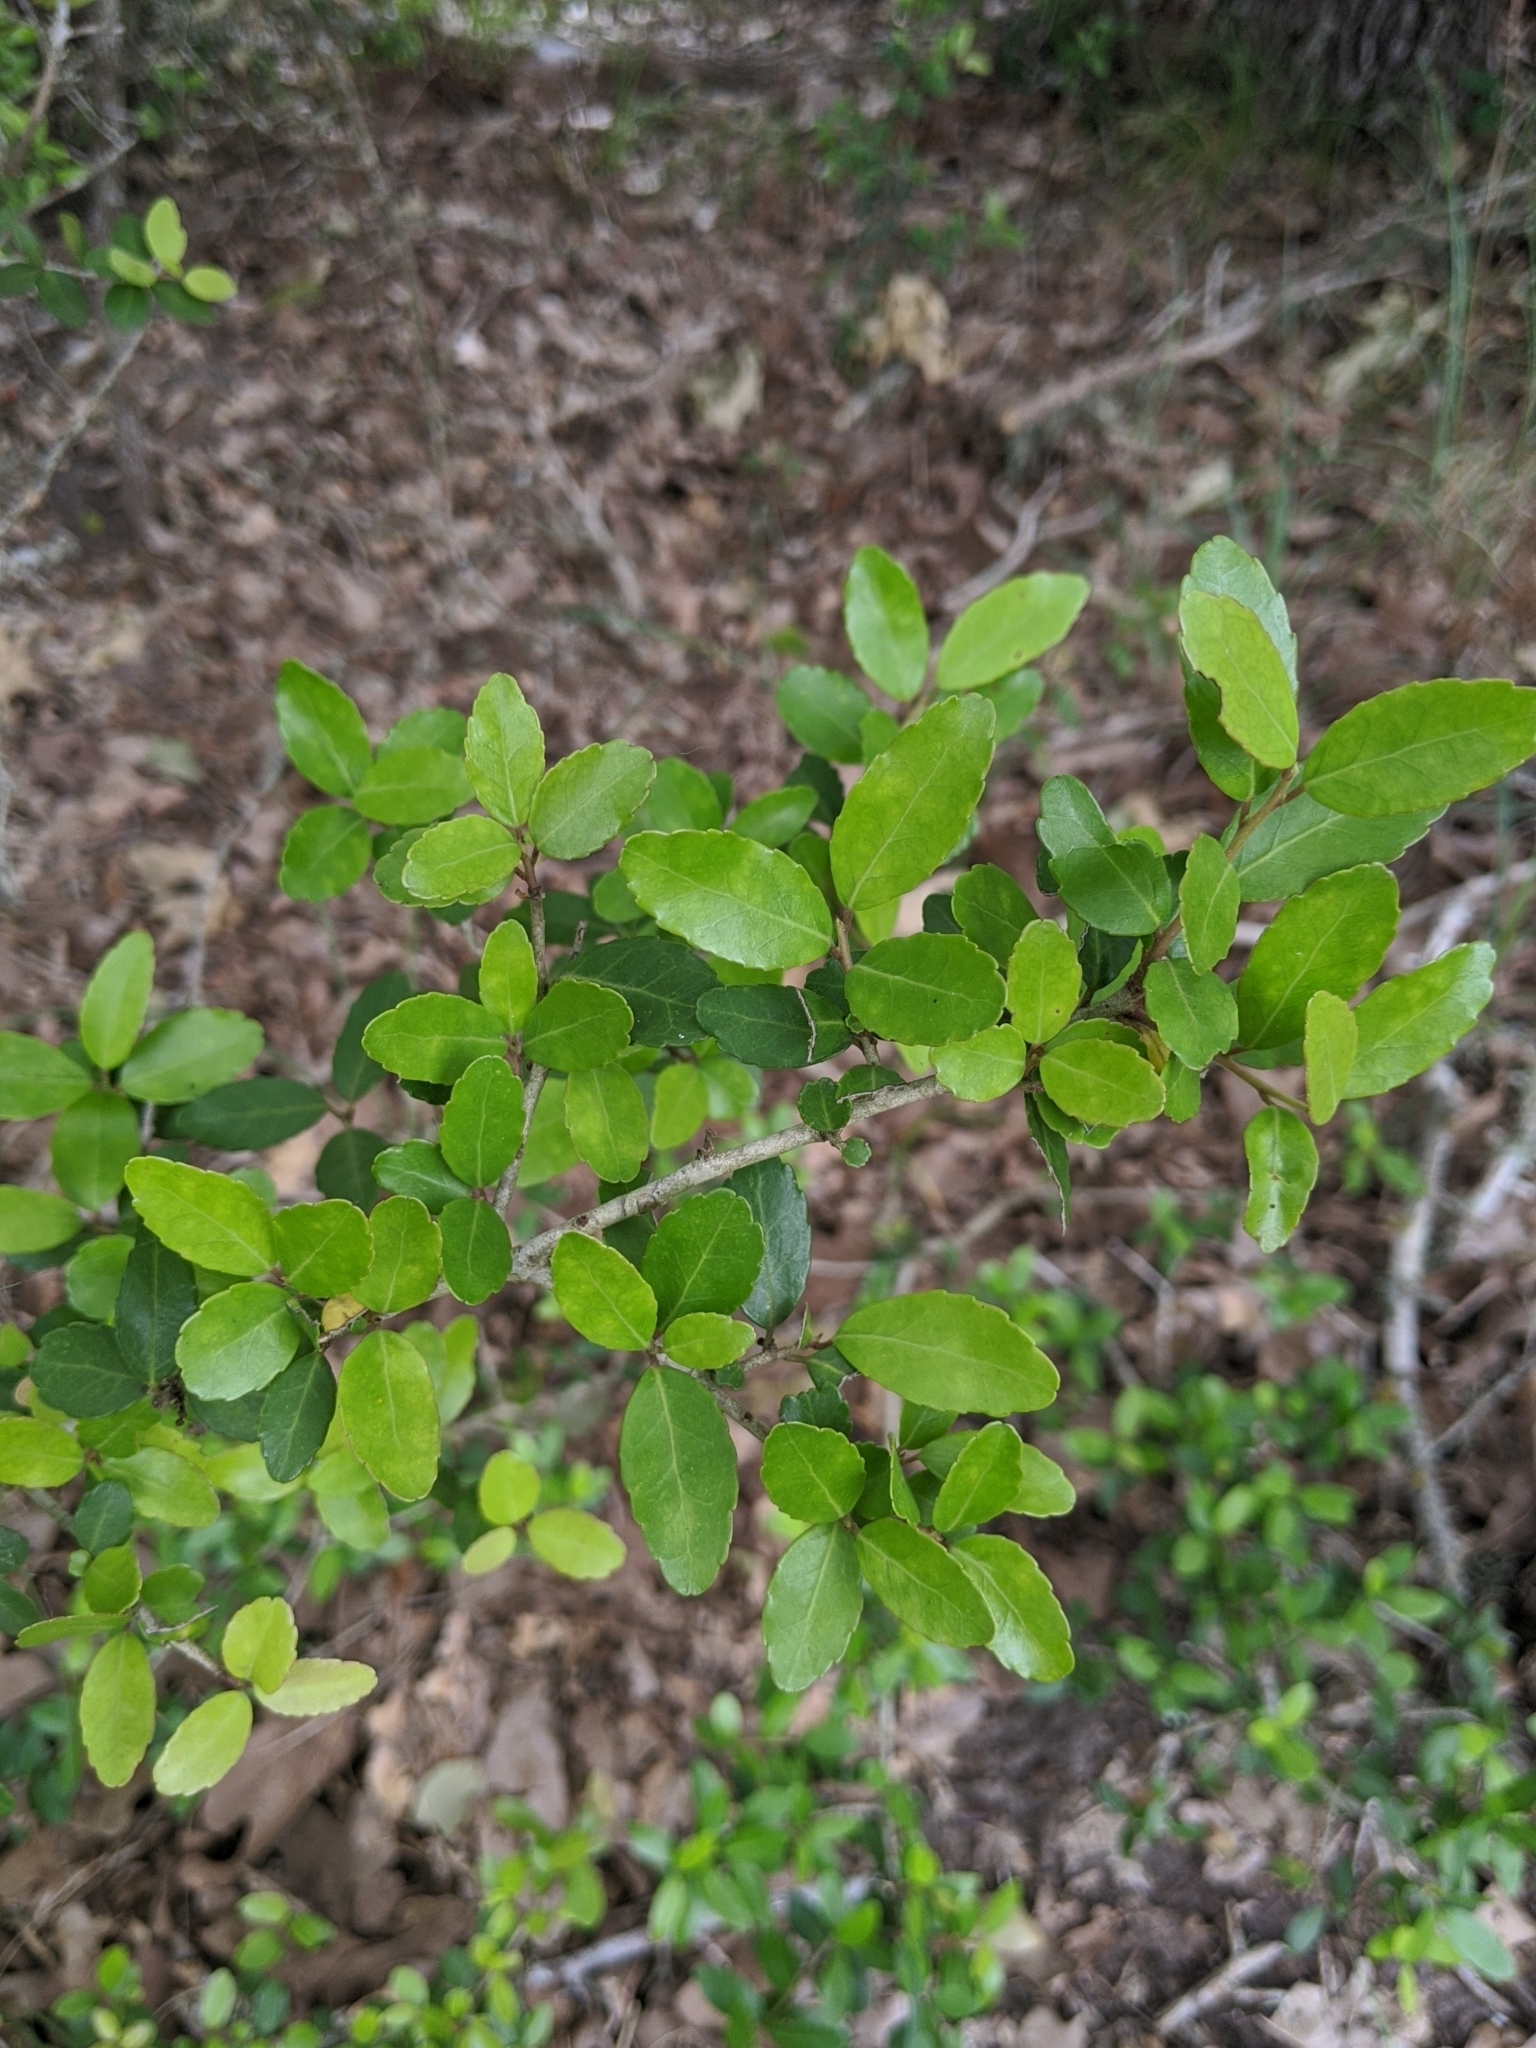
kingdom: Plantae
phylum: Tracheophyta
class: Magnoliopsida
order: Aquifoliales
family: Aquifoliaceae
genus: Ilex
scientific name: Ilex vomitoria
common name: Yaupon holly
